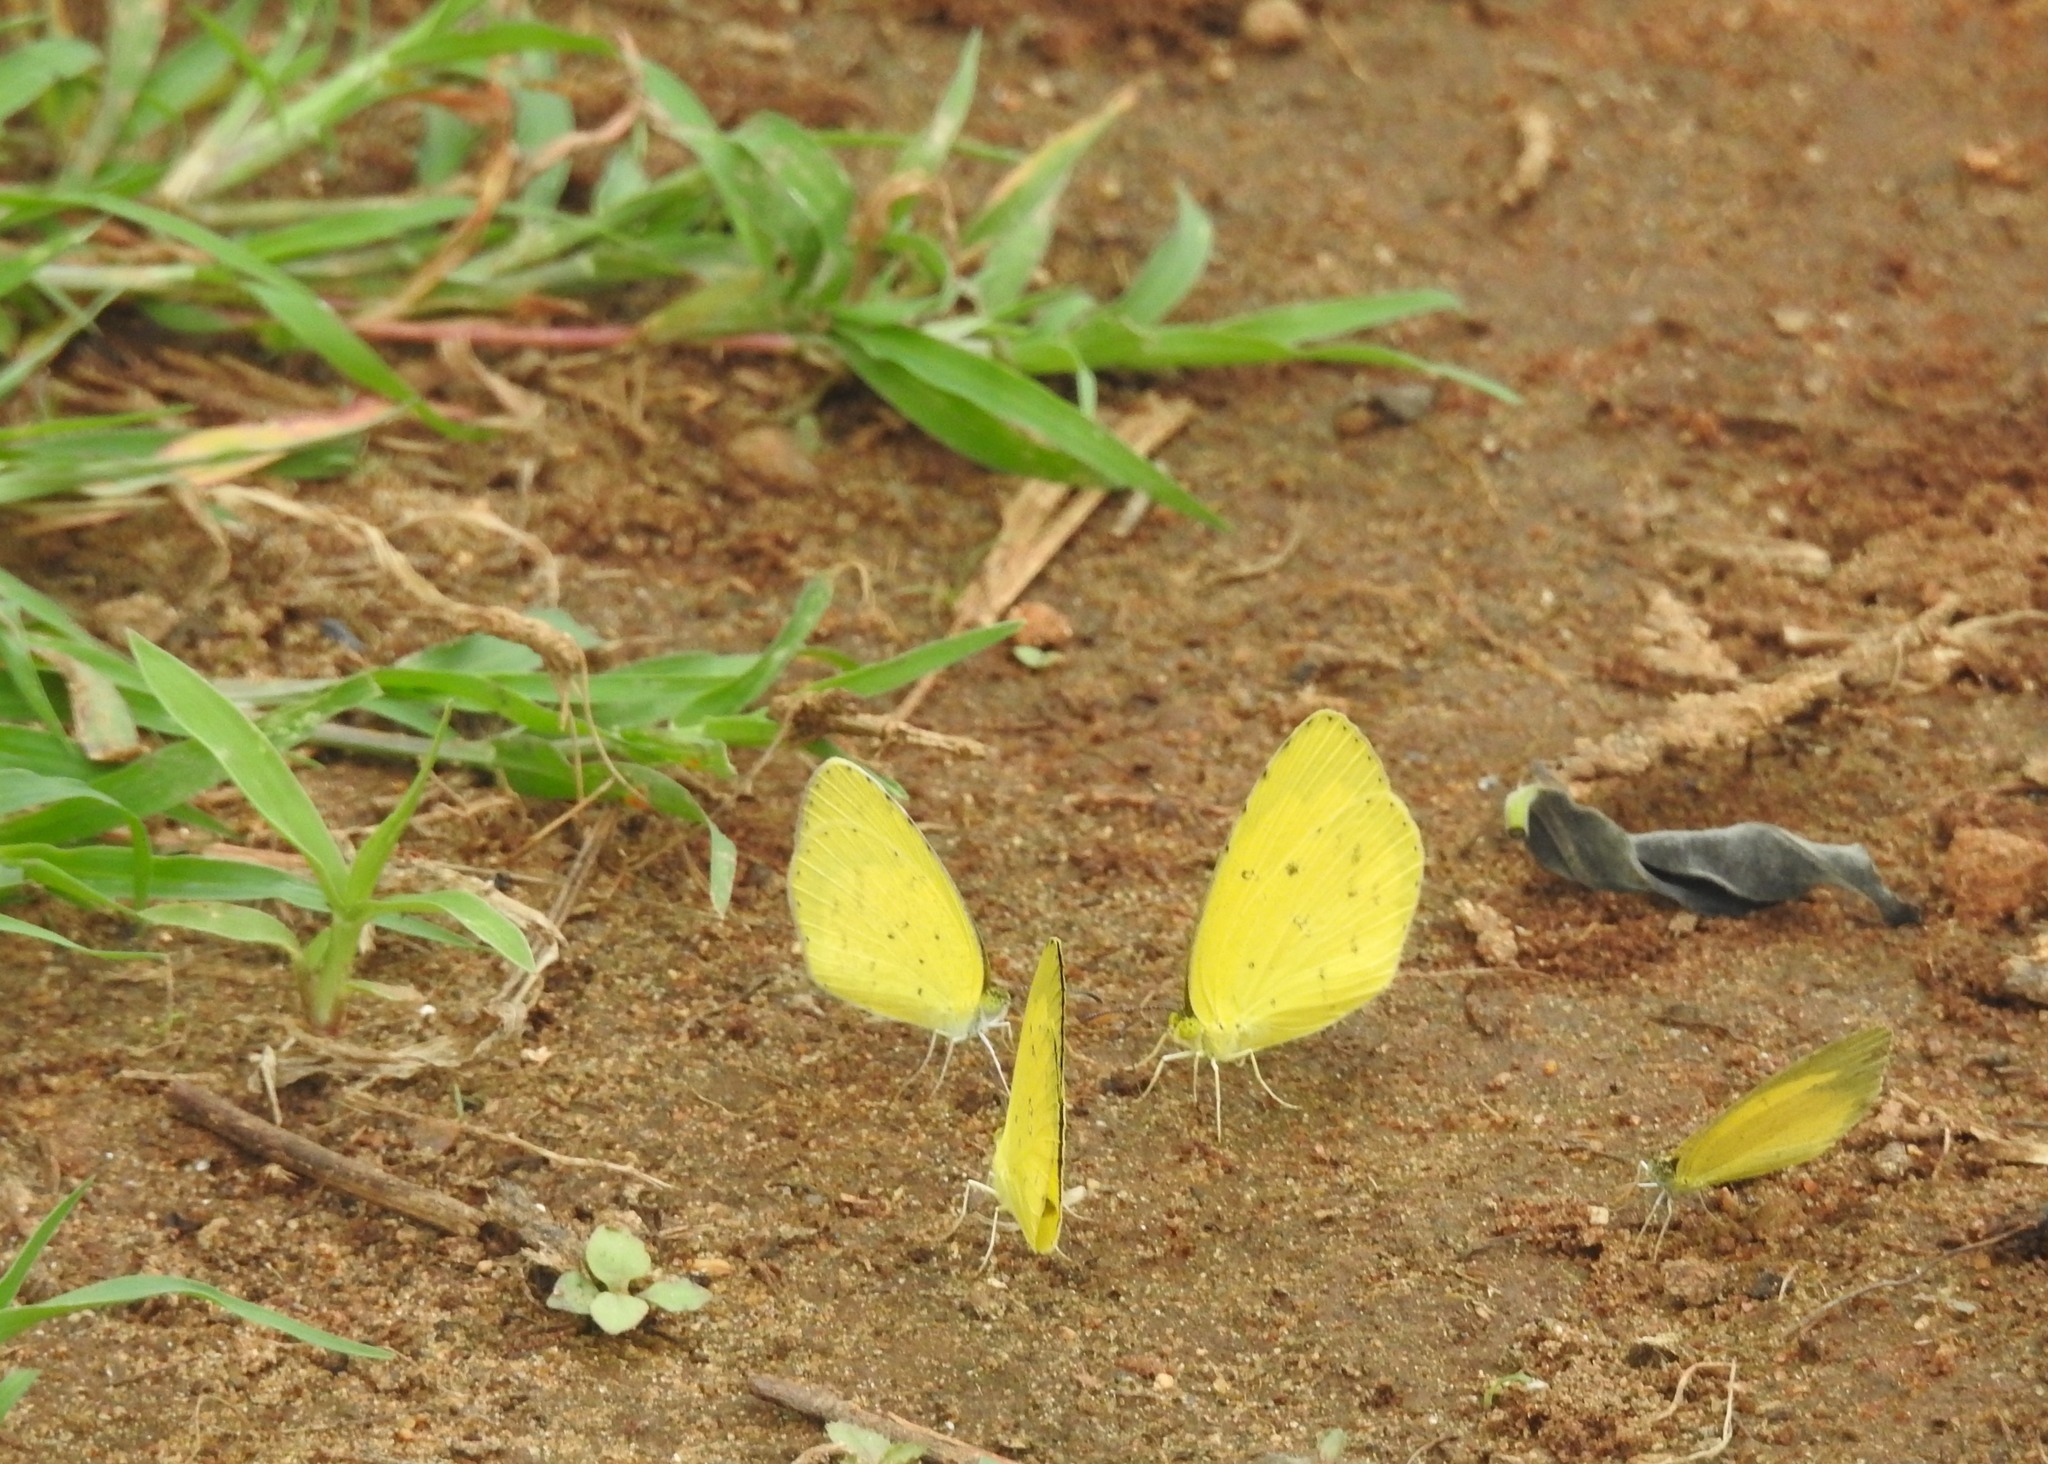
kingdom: Animalia
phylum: Arthropoda
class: Insecta
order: Lepidoptera
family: Pieridae
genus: Eurema
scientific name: Eurema laeta
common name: Spotless grass yellow
